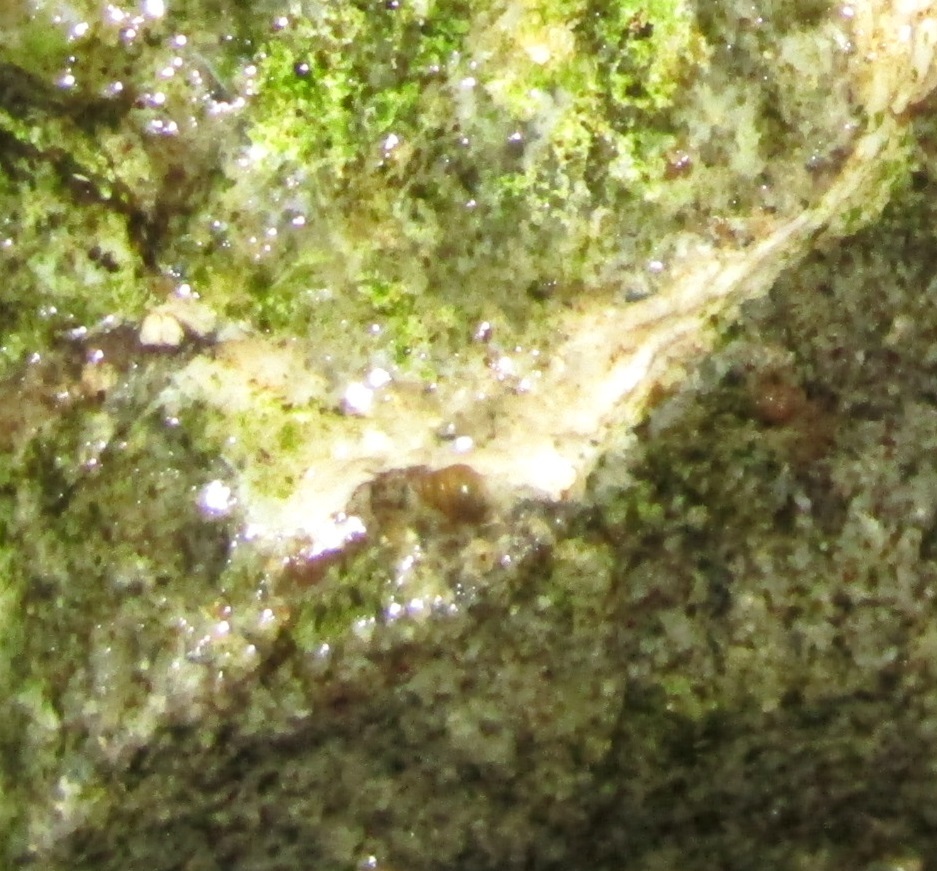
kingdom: Animalia
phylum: Mollusca
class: Gastropoda
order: Littorinimorpha
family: Tateidae
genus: Potamopyrgus
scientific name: Potamopyrgus antipodarum
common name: Jenkins' spire snail
